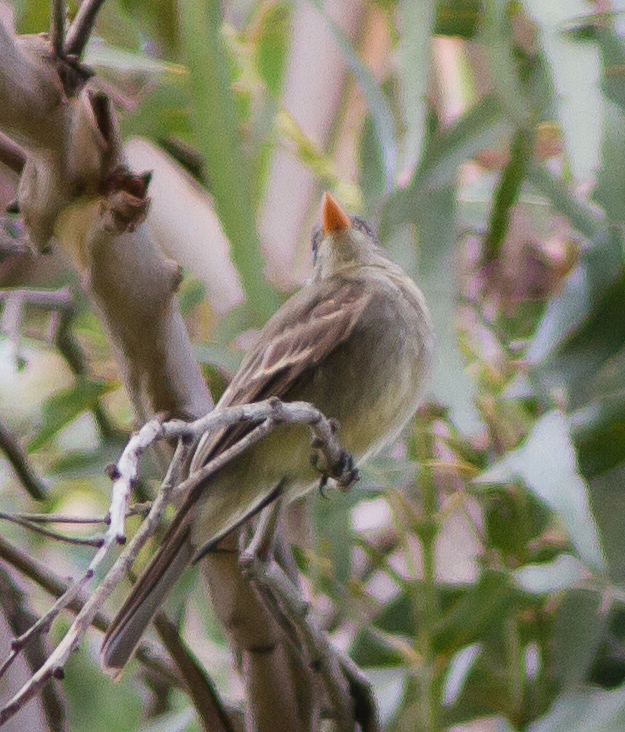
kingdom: Animalia
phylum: Chordata
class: Aves
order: Passeriformes
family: Tyrannidae
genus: Contopus
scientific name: Contopus pertinax
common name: Greater pewee
